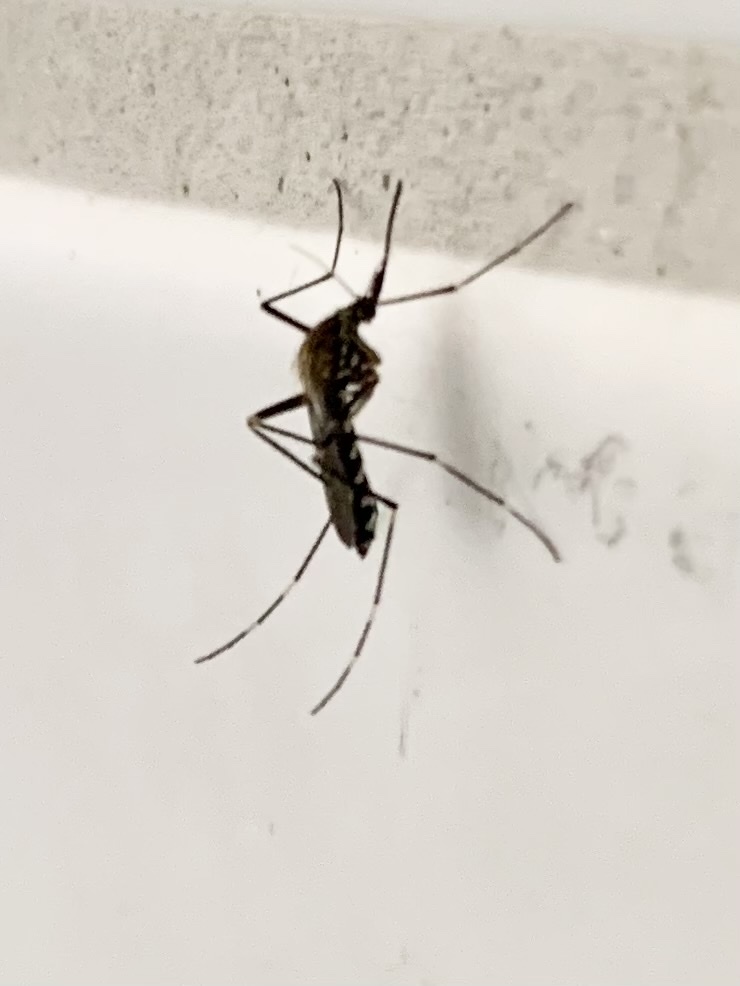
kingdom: Animalia
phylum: Arthropoda
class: Insecta
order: Diptera
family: Culicidae
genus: Aedes
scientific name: Aedes japonicus
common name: Asian bush mosquito
